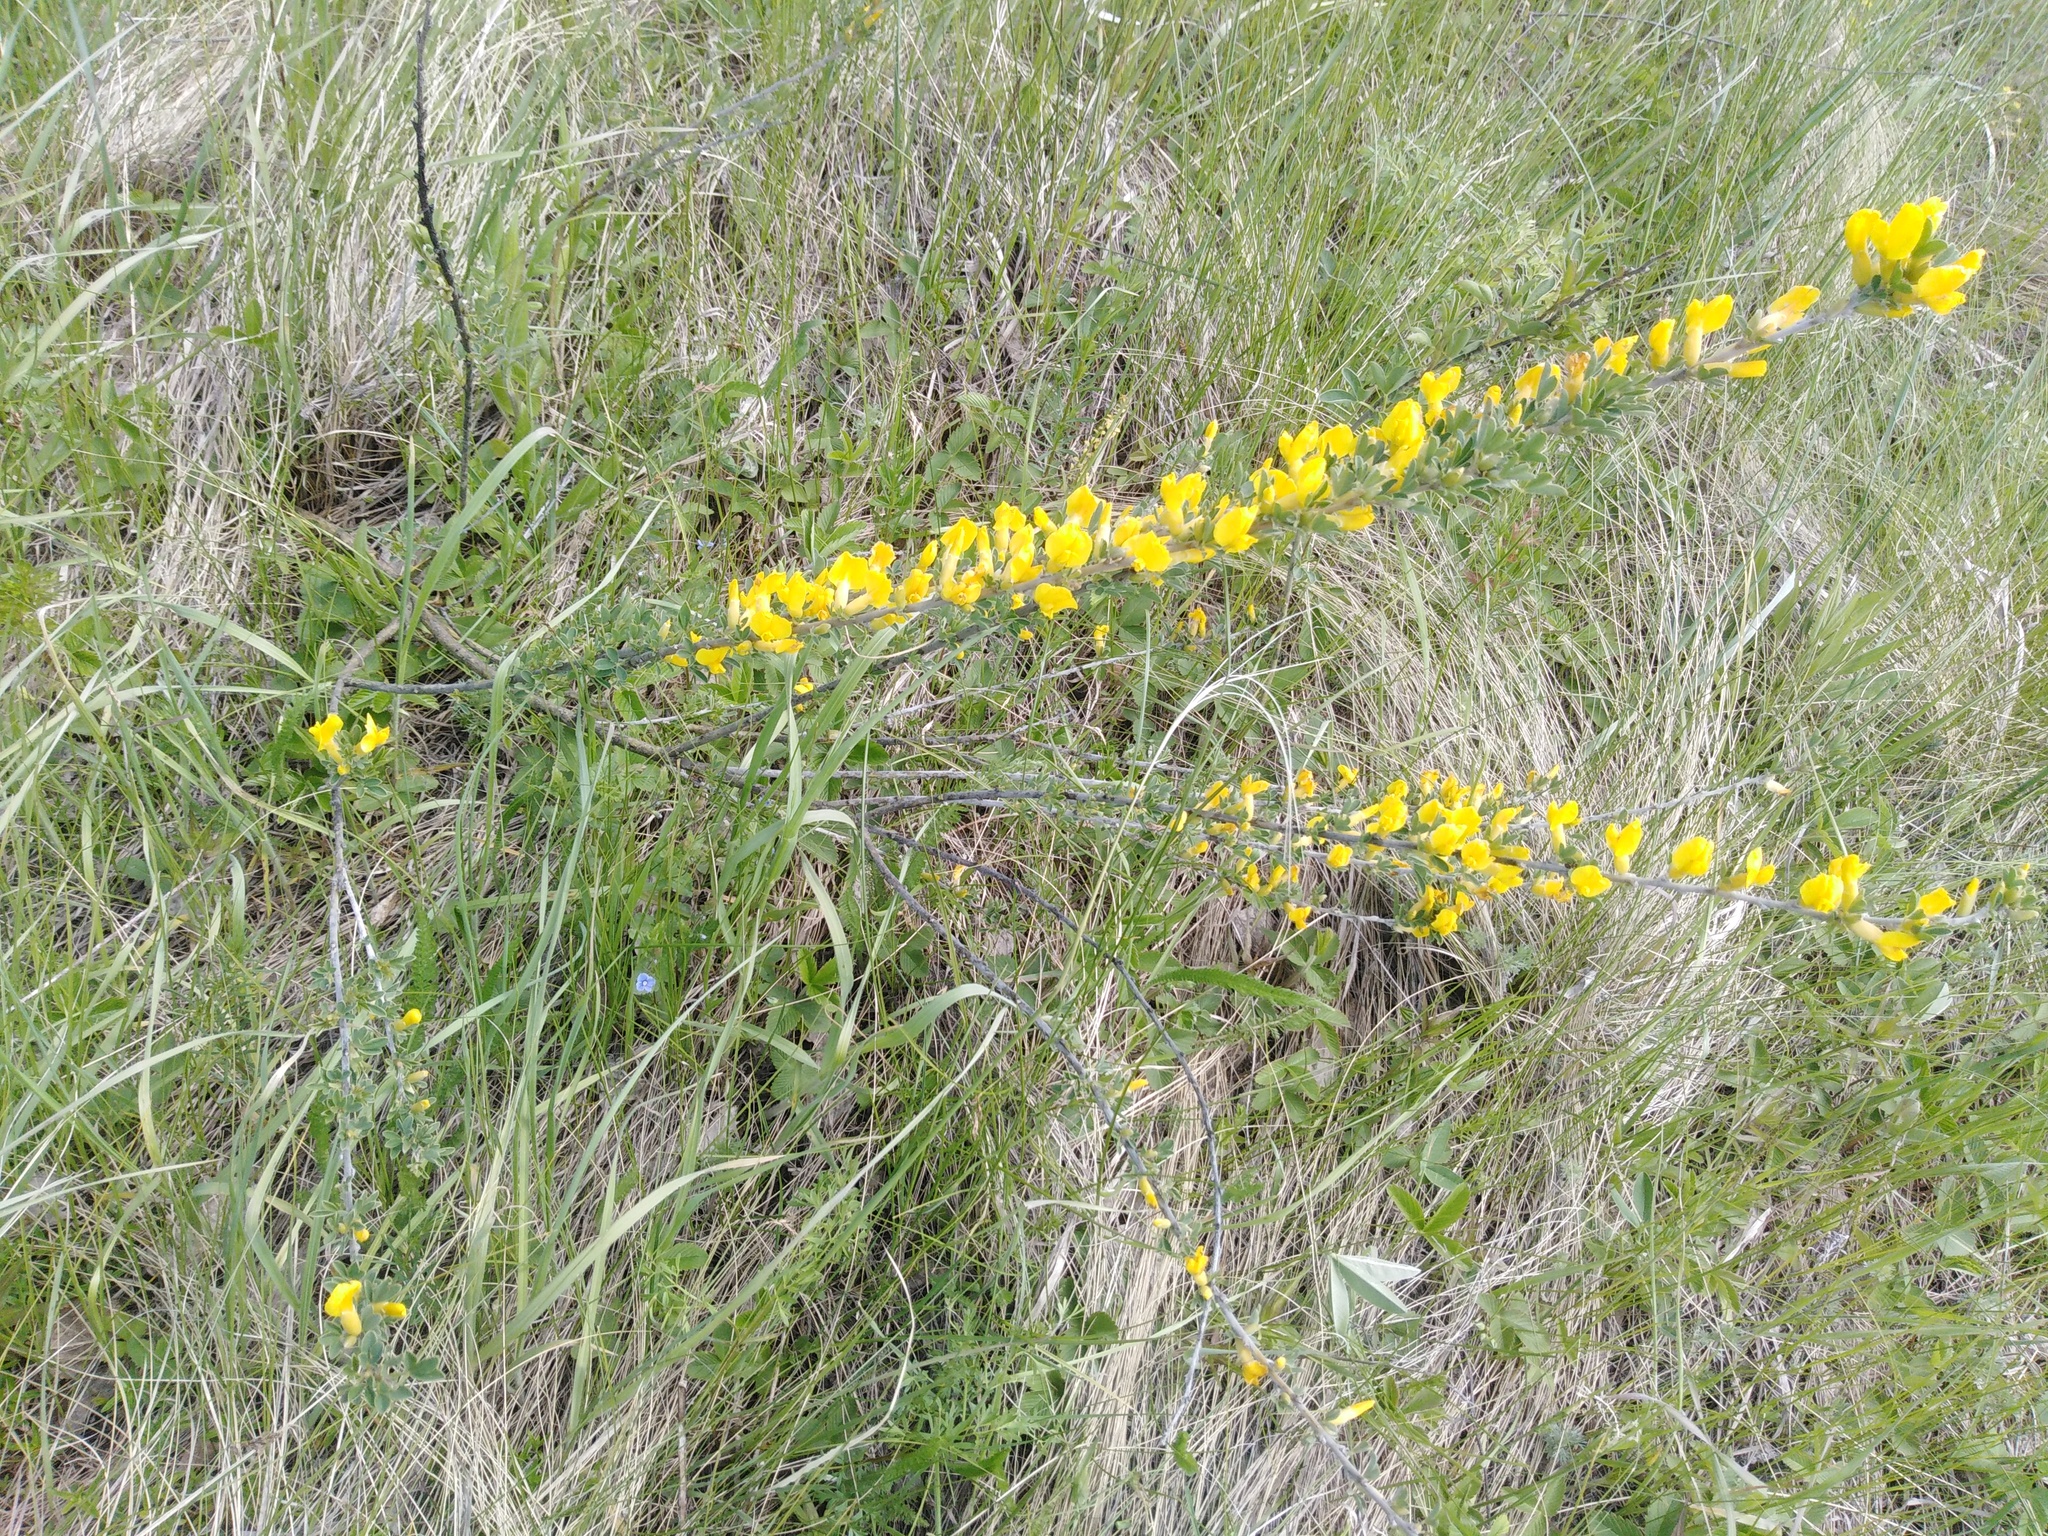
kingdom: Plantae
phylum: Tracheophyta
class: Magnoliopsida
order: Fabales
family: Fabaceae
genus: Chamaecytisus
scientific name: Chamaecytisus ruthenicus
